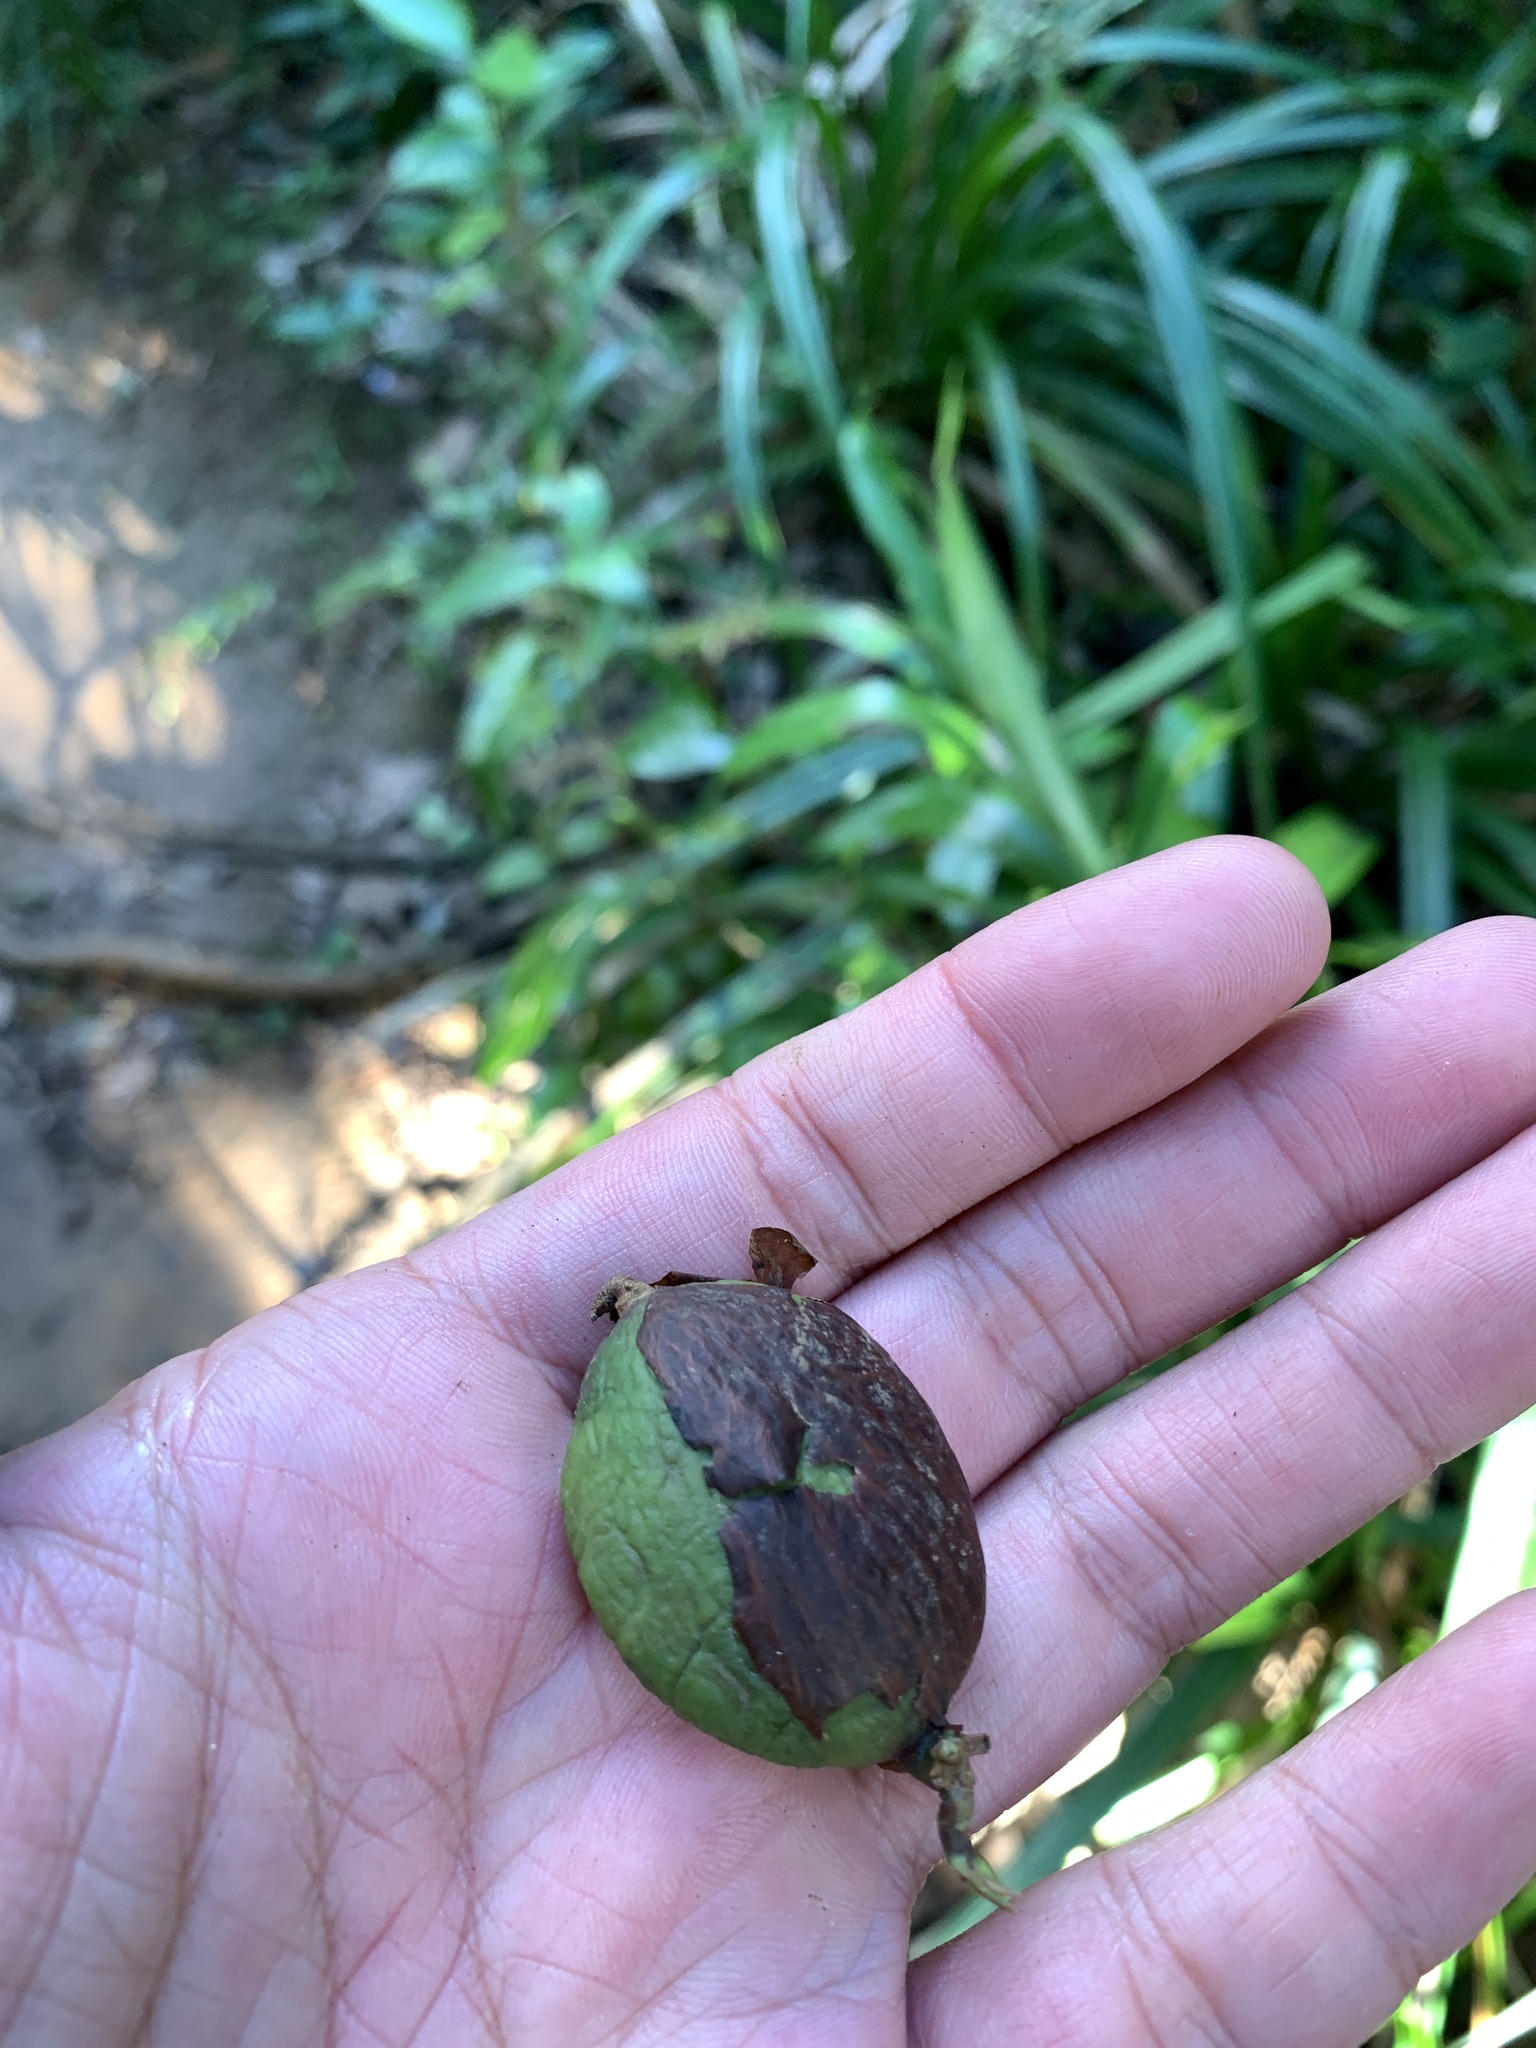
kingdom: Plantae
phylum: Tracheophyta
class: Magnoliopsida
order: Malpighiales
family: Clusiaceae
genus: Garcinia
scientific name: Garcinia linii
